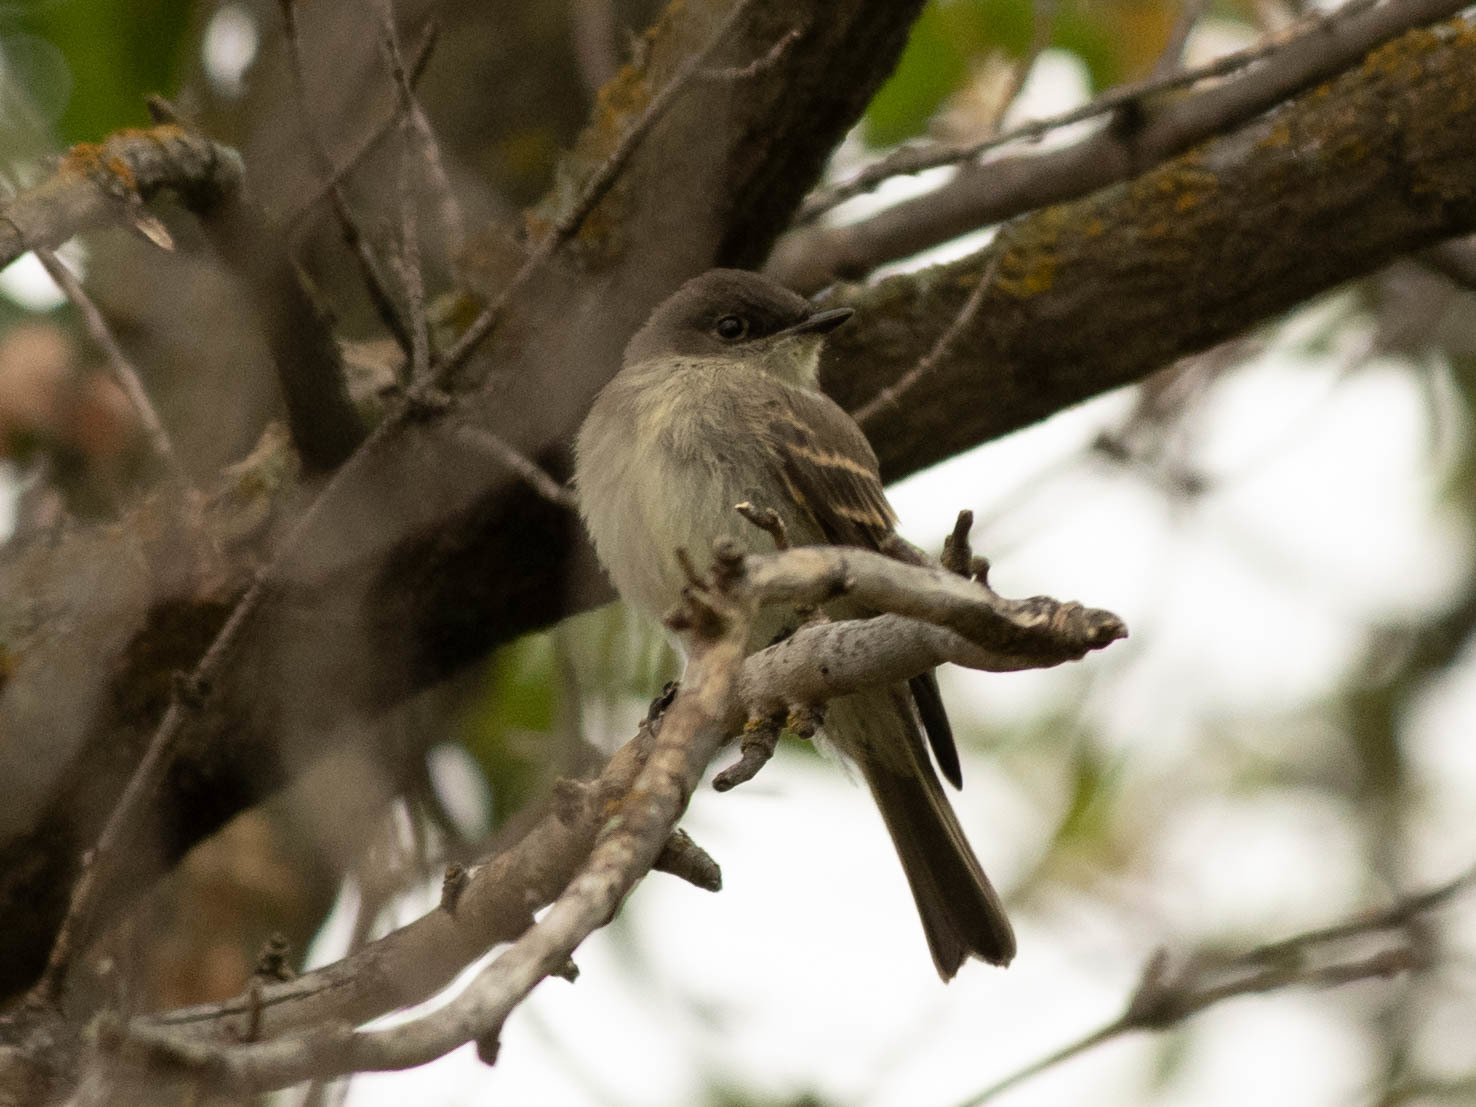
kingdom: Animalia
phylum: Chordata
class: Aves
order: Passeriformes
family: Tyrannidae
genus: Sayornis
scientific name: Sayornis phoebe
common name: Eastern phoebe
